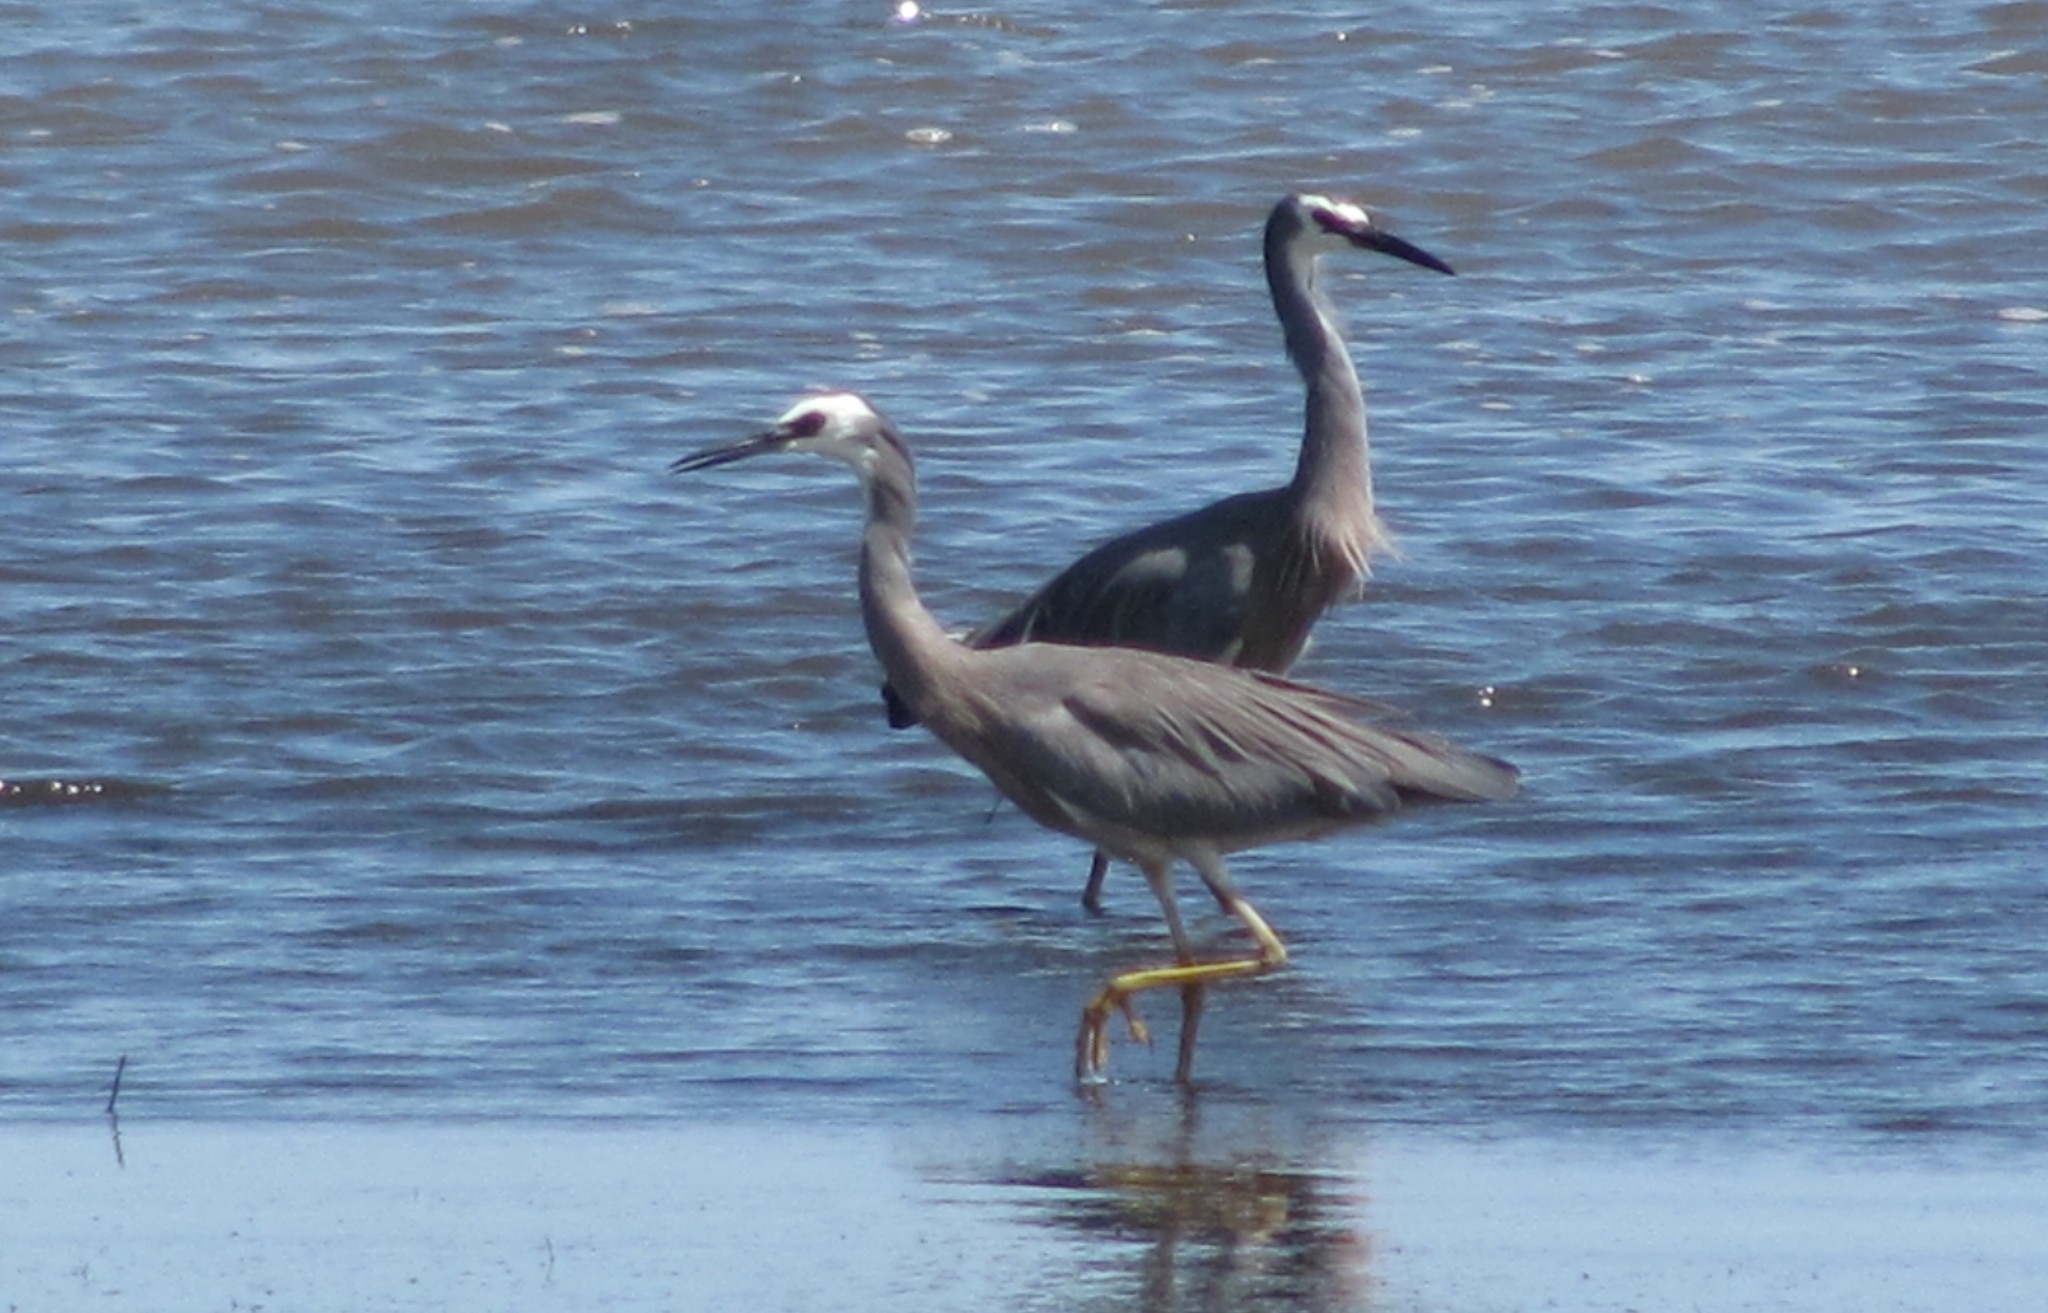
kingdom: Animalia
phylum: Chordata
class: Aves
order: Pelecaniformes
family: Ardeidae
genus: Egretta
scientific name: Egretta novaehollandiae
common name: White-faced heron
